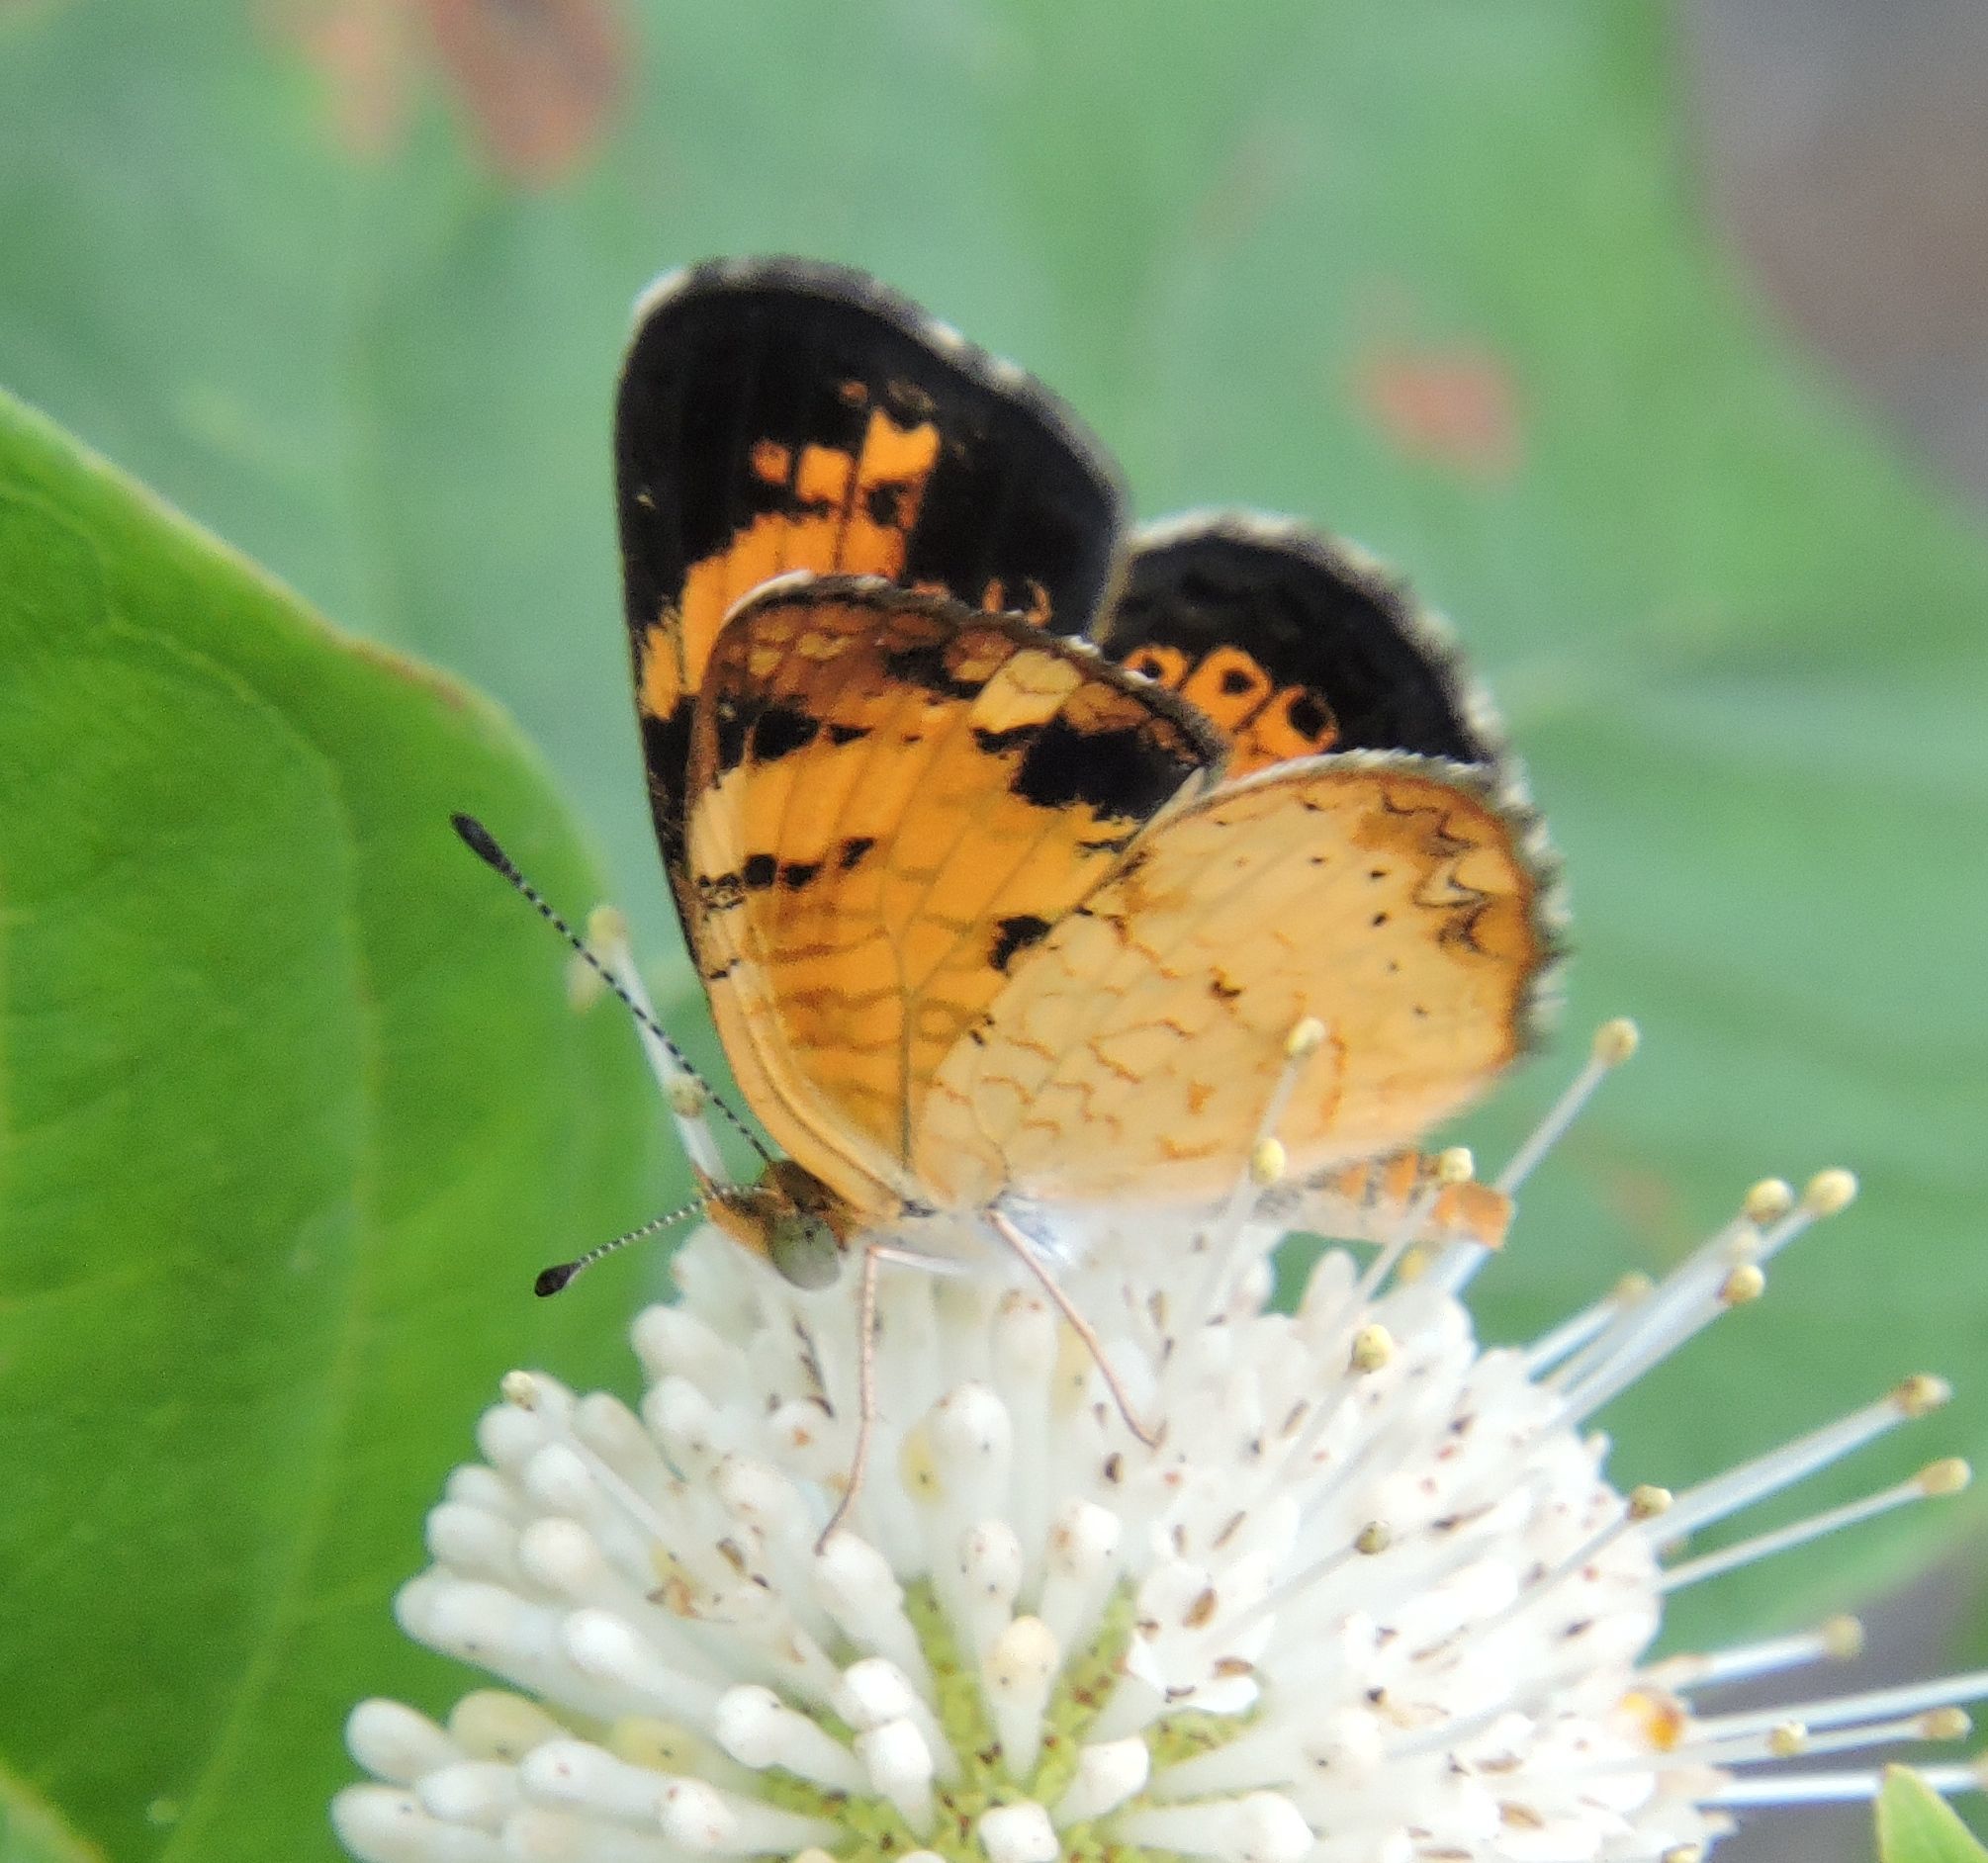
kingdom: Animalia
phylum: Arthropoda
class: Insecta
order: Lepidoptera
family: Nymphalidae
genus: Phyciodes
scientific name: Phyciodes tharos
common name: Pearl crescent
